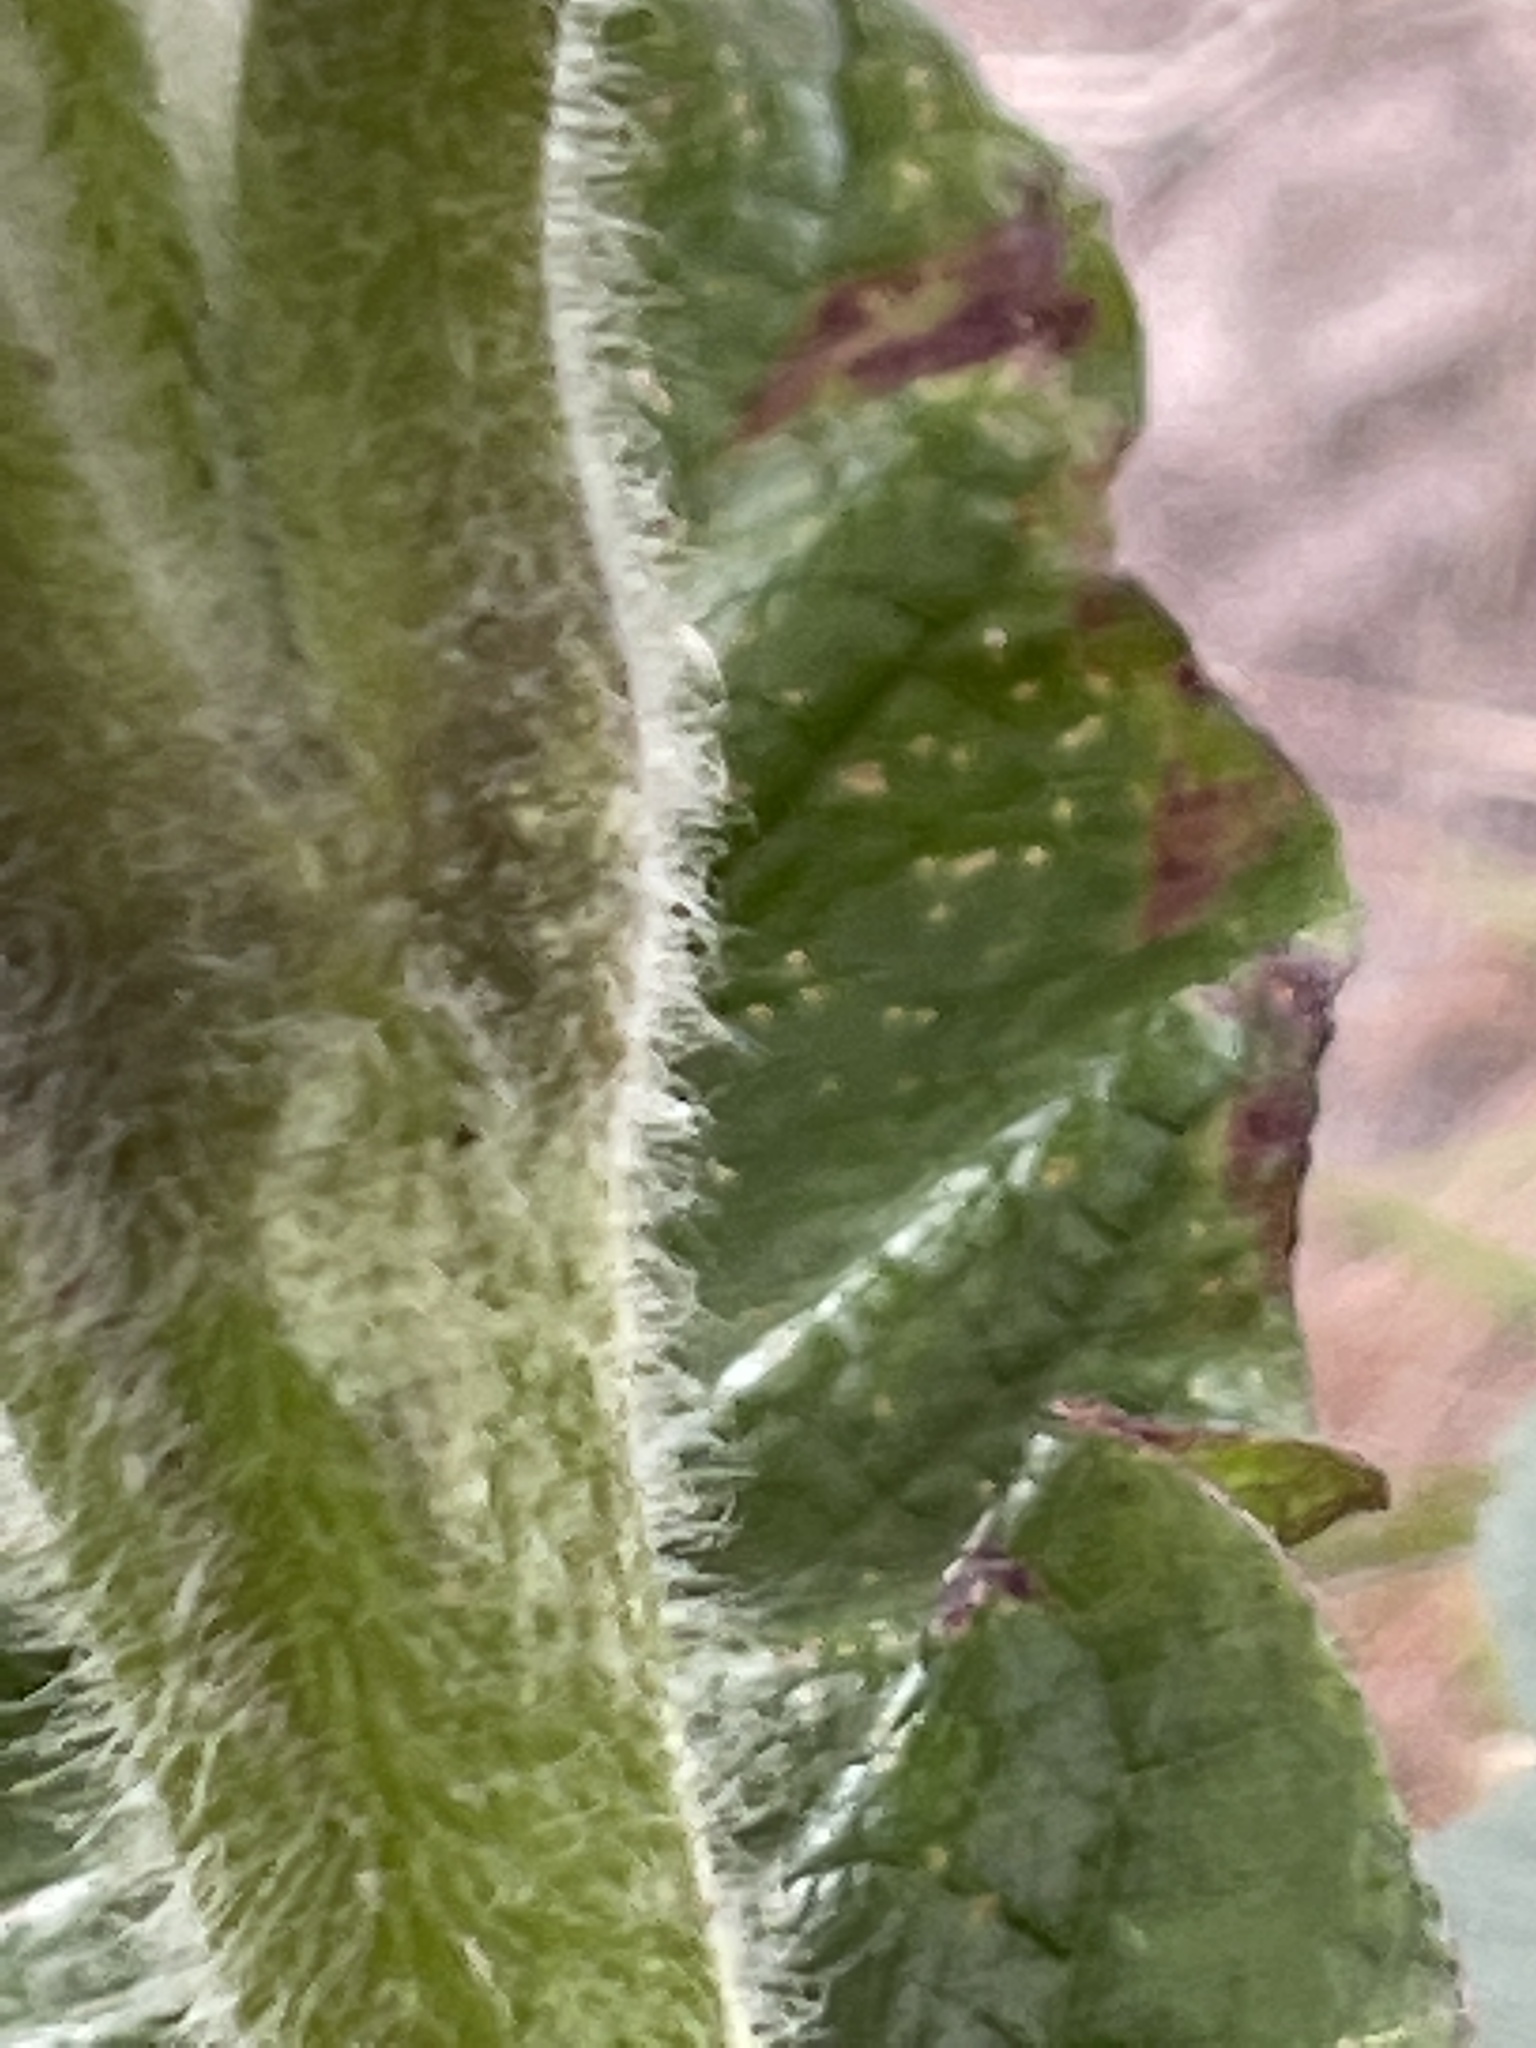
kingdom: Plantae
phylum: Tracheophyta
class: Magnoliopsida
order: Lamiales
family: Bignoniaceae
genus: Deplanchea
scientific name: Deplanchea tetraphylla
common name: Deplanchea
